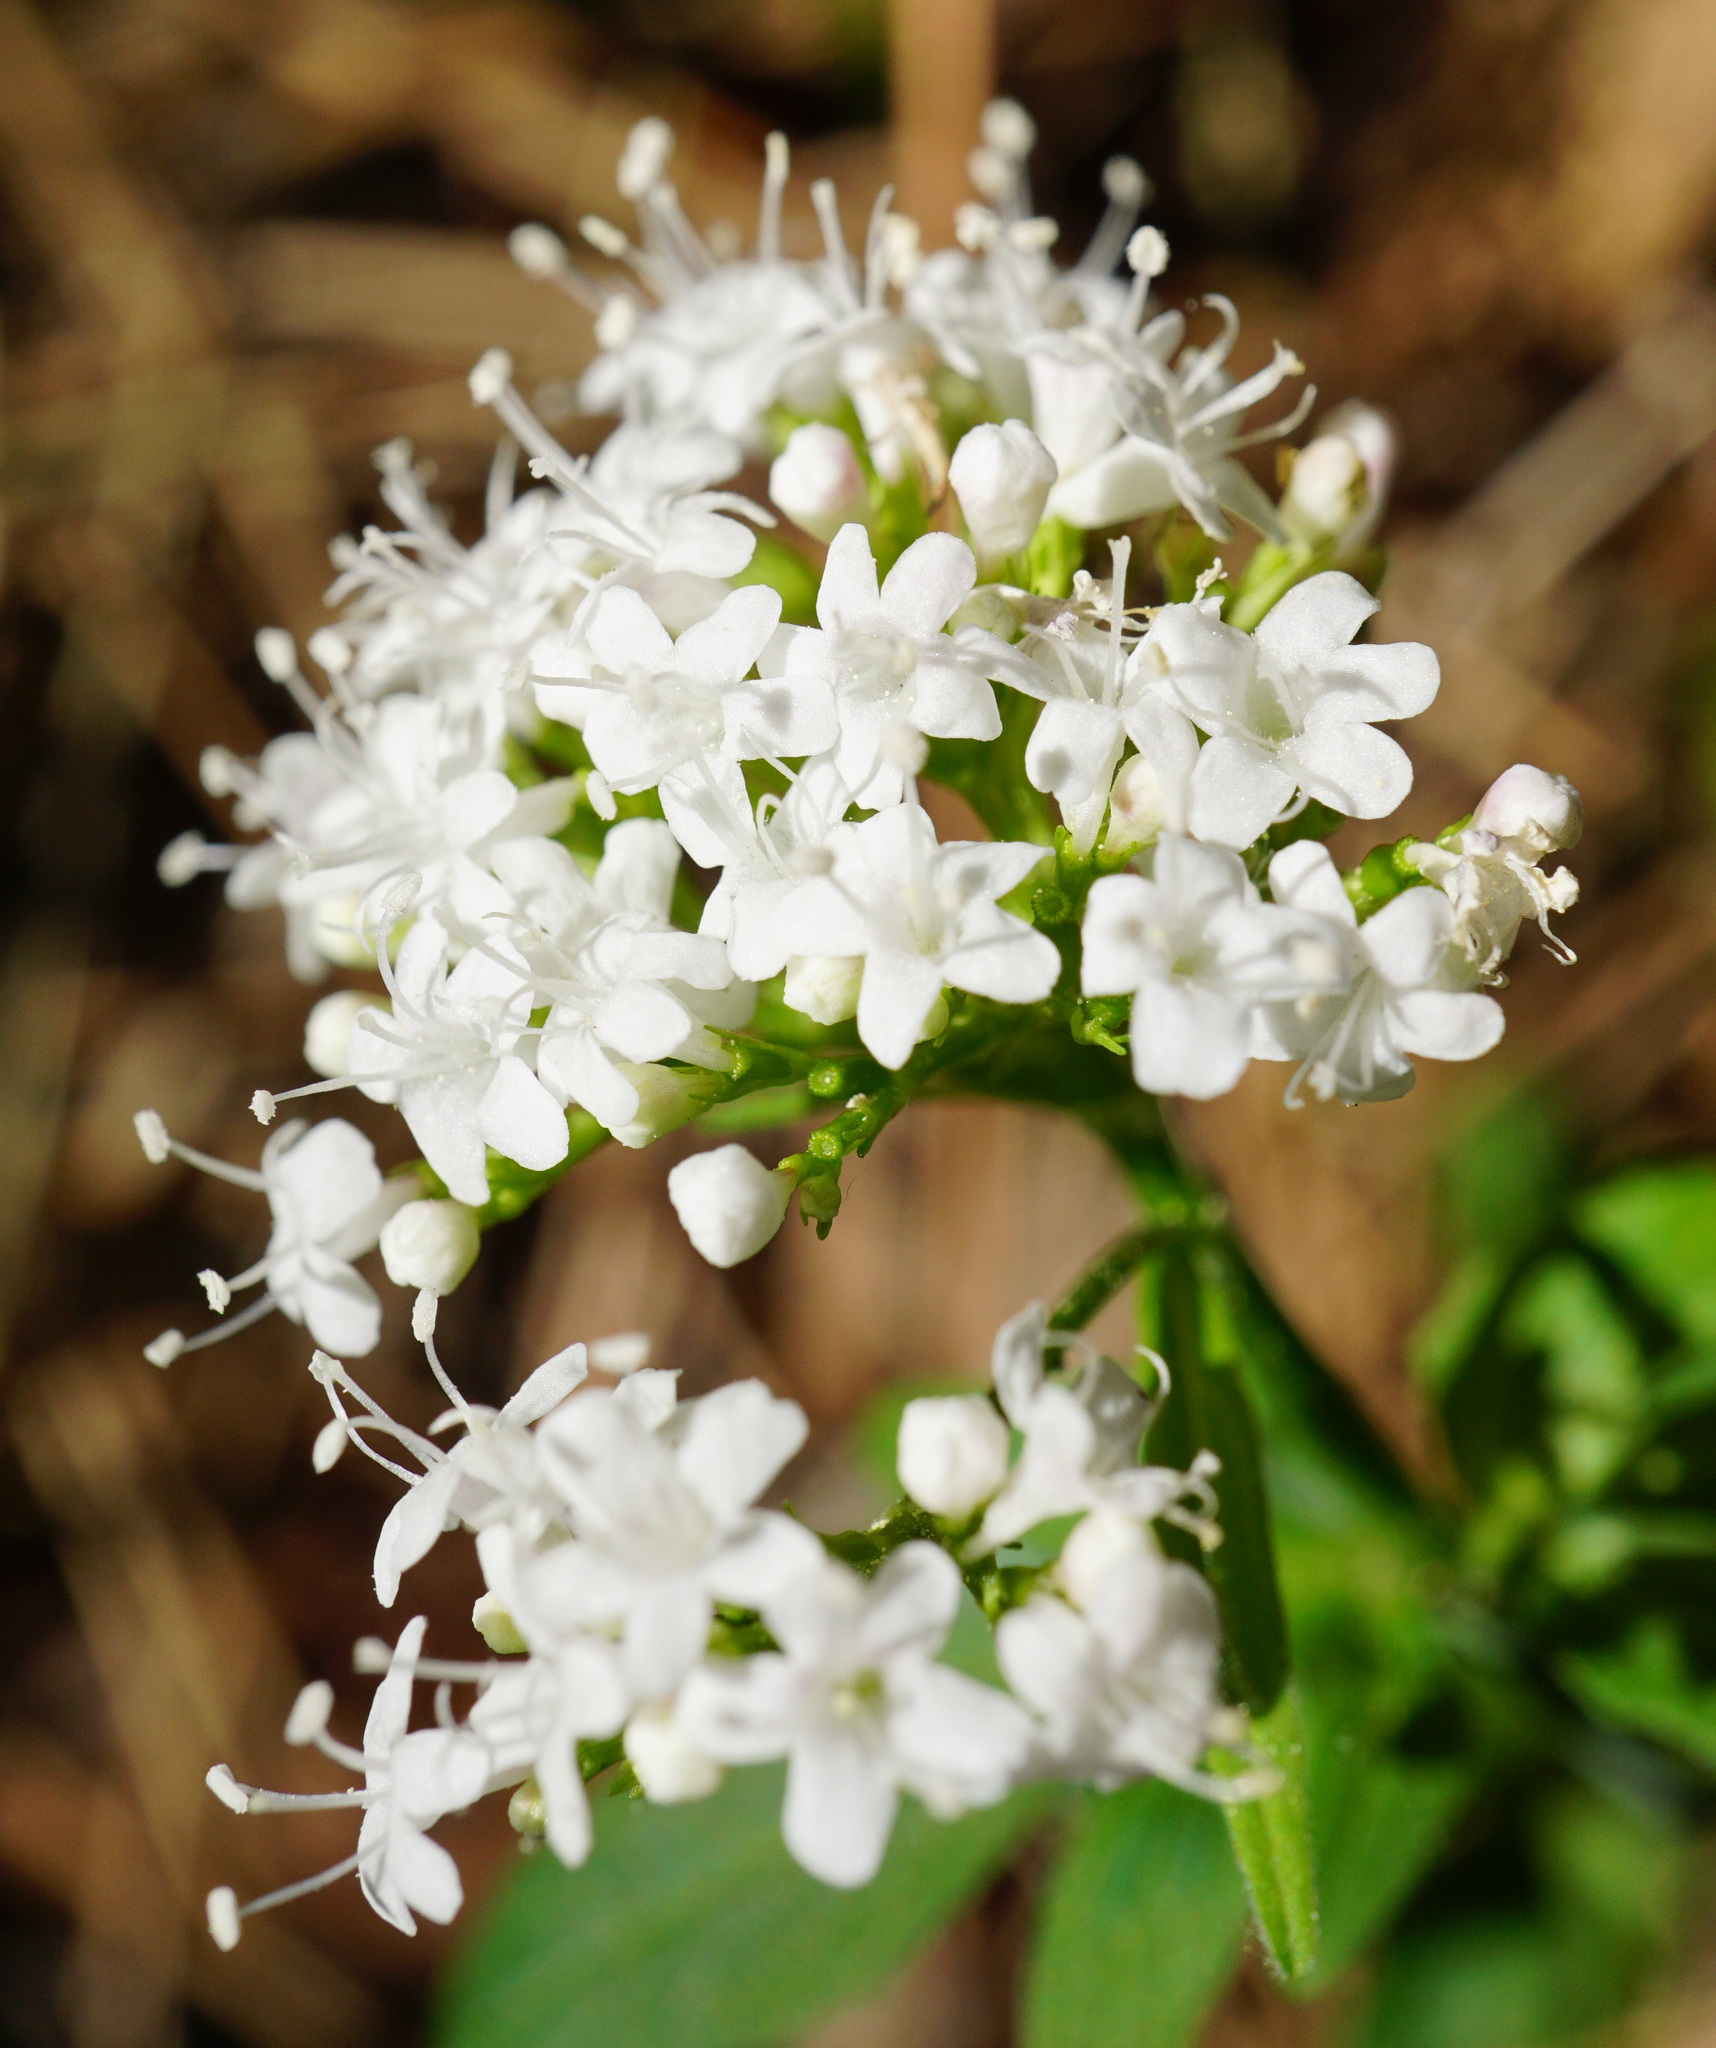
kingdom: Plantae
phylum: Tracheophyta
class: Magnoliopsida
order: Dipsacales
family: Caprifoliaceae
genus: Valeriana
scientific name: Valeriana tripteris
